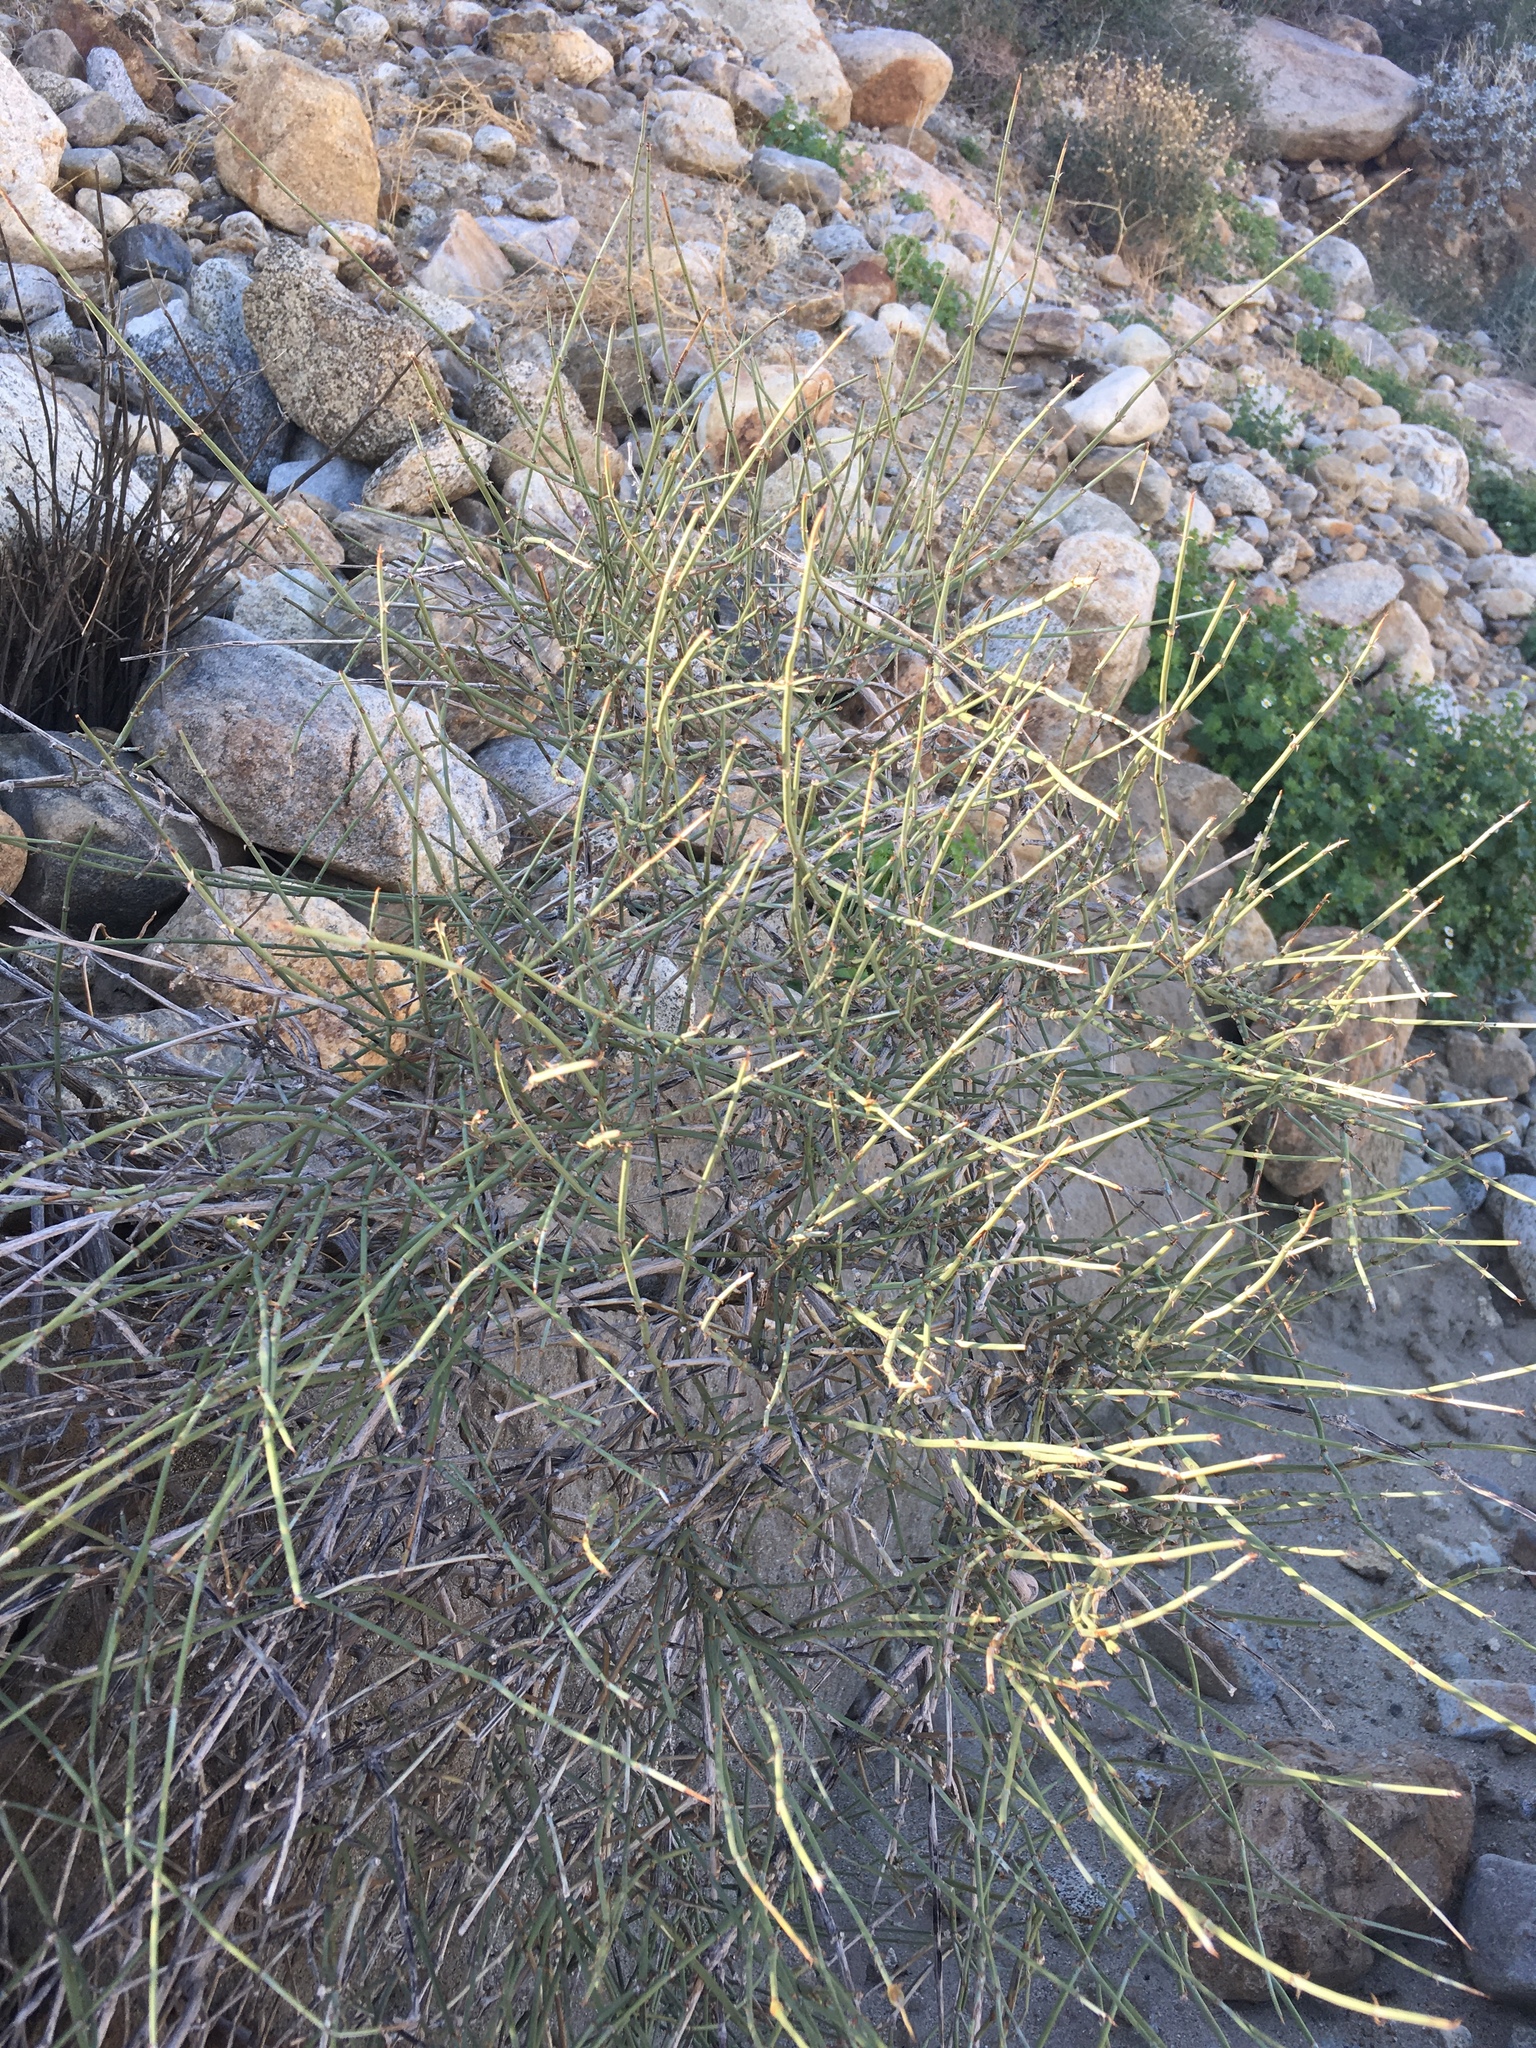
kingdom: Plantae
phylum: Tracheophyta
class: Gnetopsida
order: Ephedrales
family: Ephedraceae
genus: Ephedra
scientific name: Ephedra californica
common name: California ephedra
